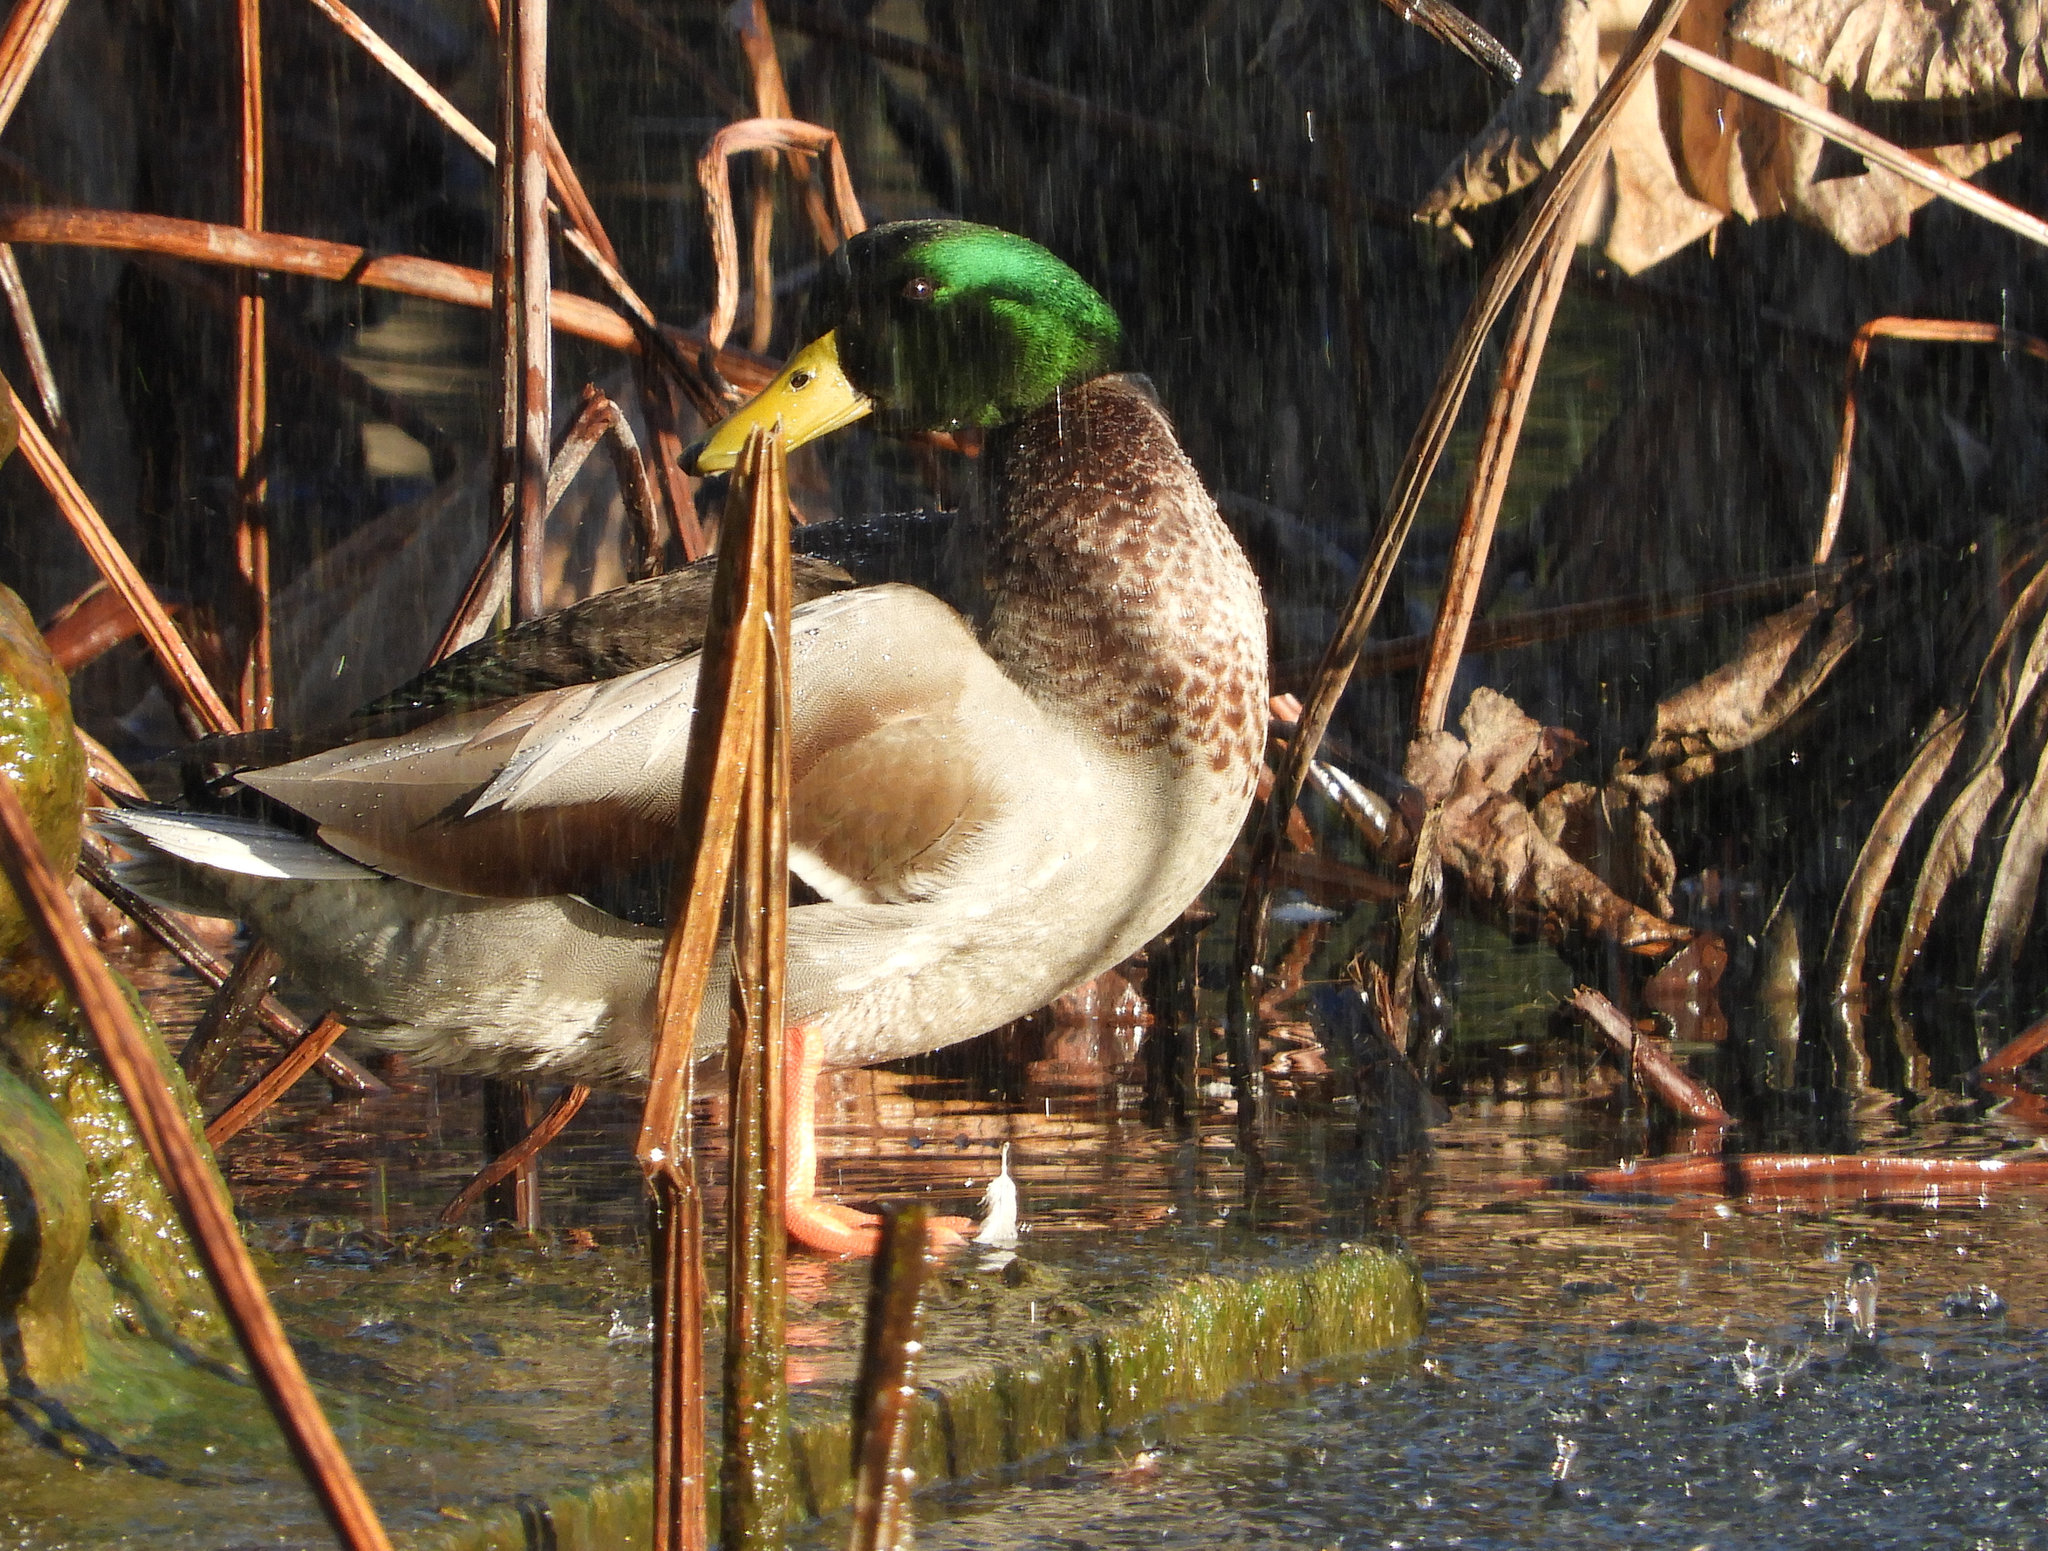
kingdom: Animalia
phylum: Chordata
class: Aves
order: Anseriformes
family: Anatidae
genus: Anas
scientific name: Anas platyrhynchos
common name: Mallard
